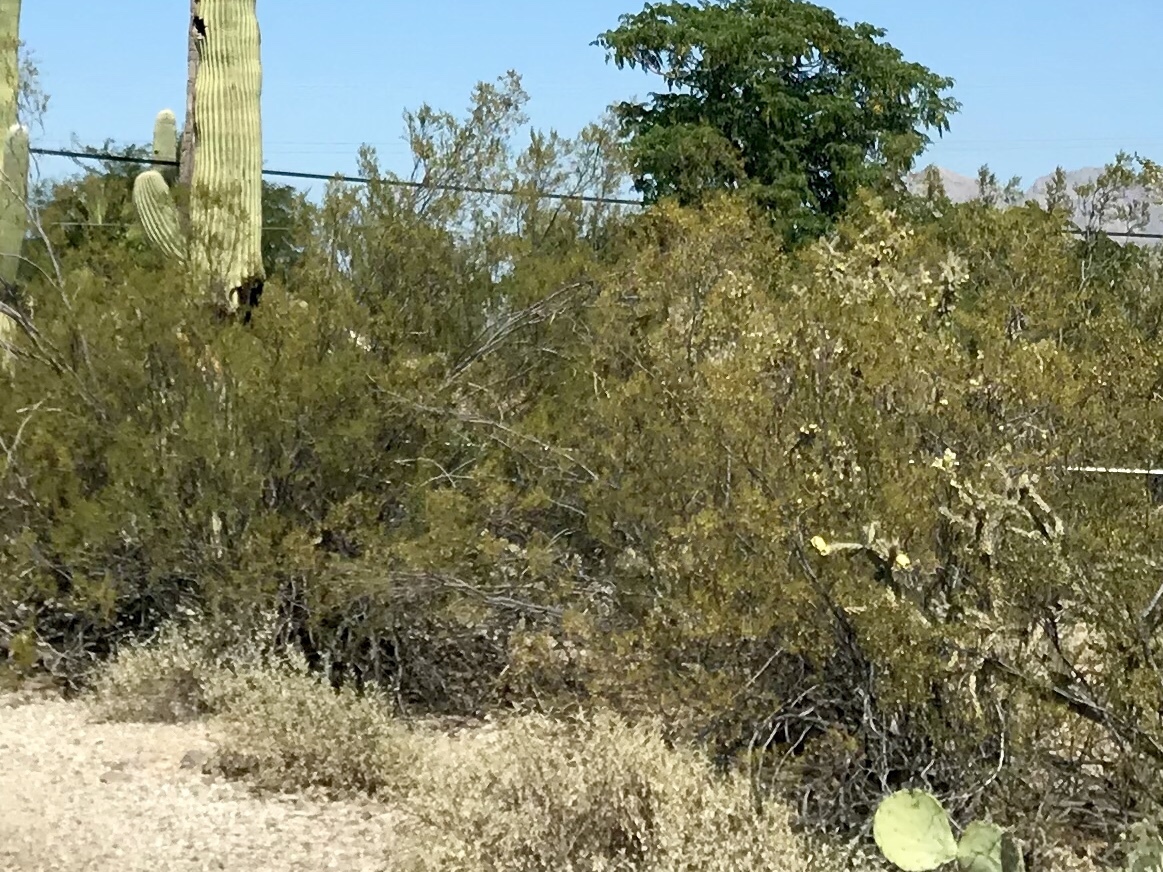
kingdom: Plantae
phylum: Tracheophyta
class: Magnoliopsida
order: Zygophyllales
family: Zygophyllaceae
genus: Larrea
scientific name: Larrea tridentata
